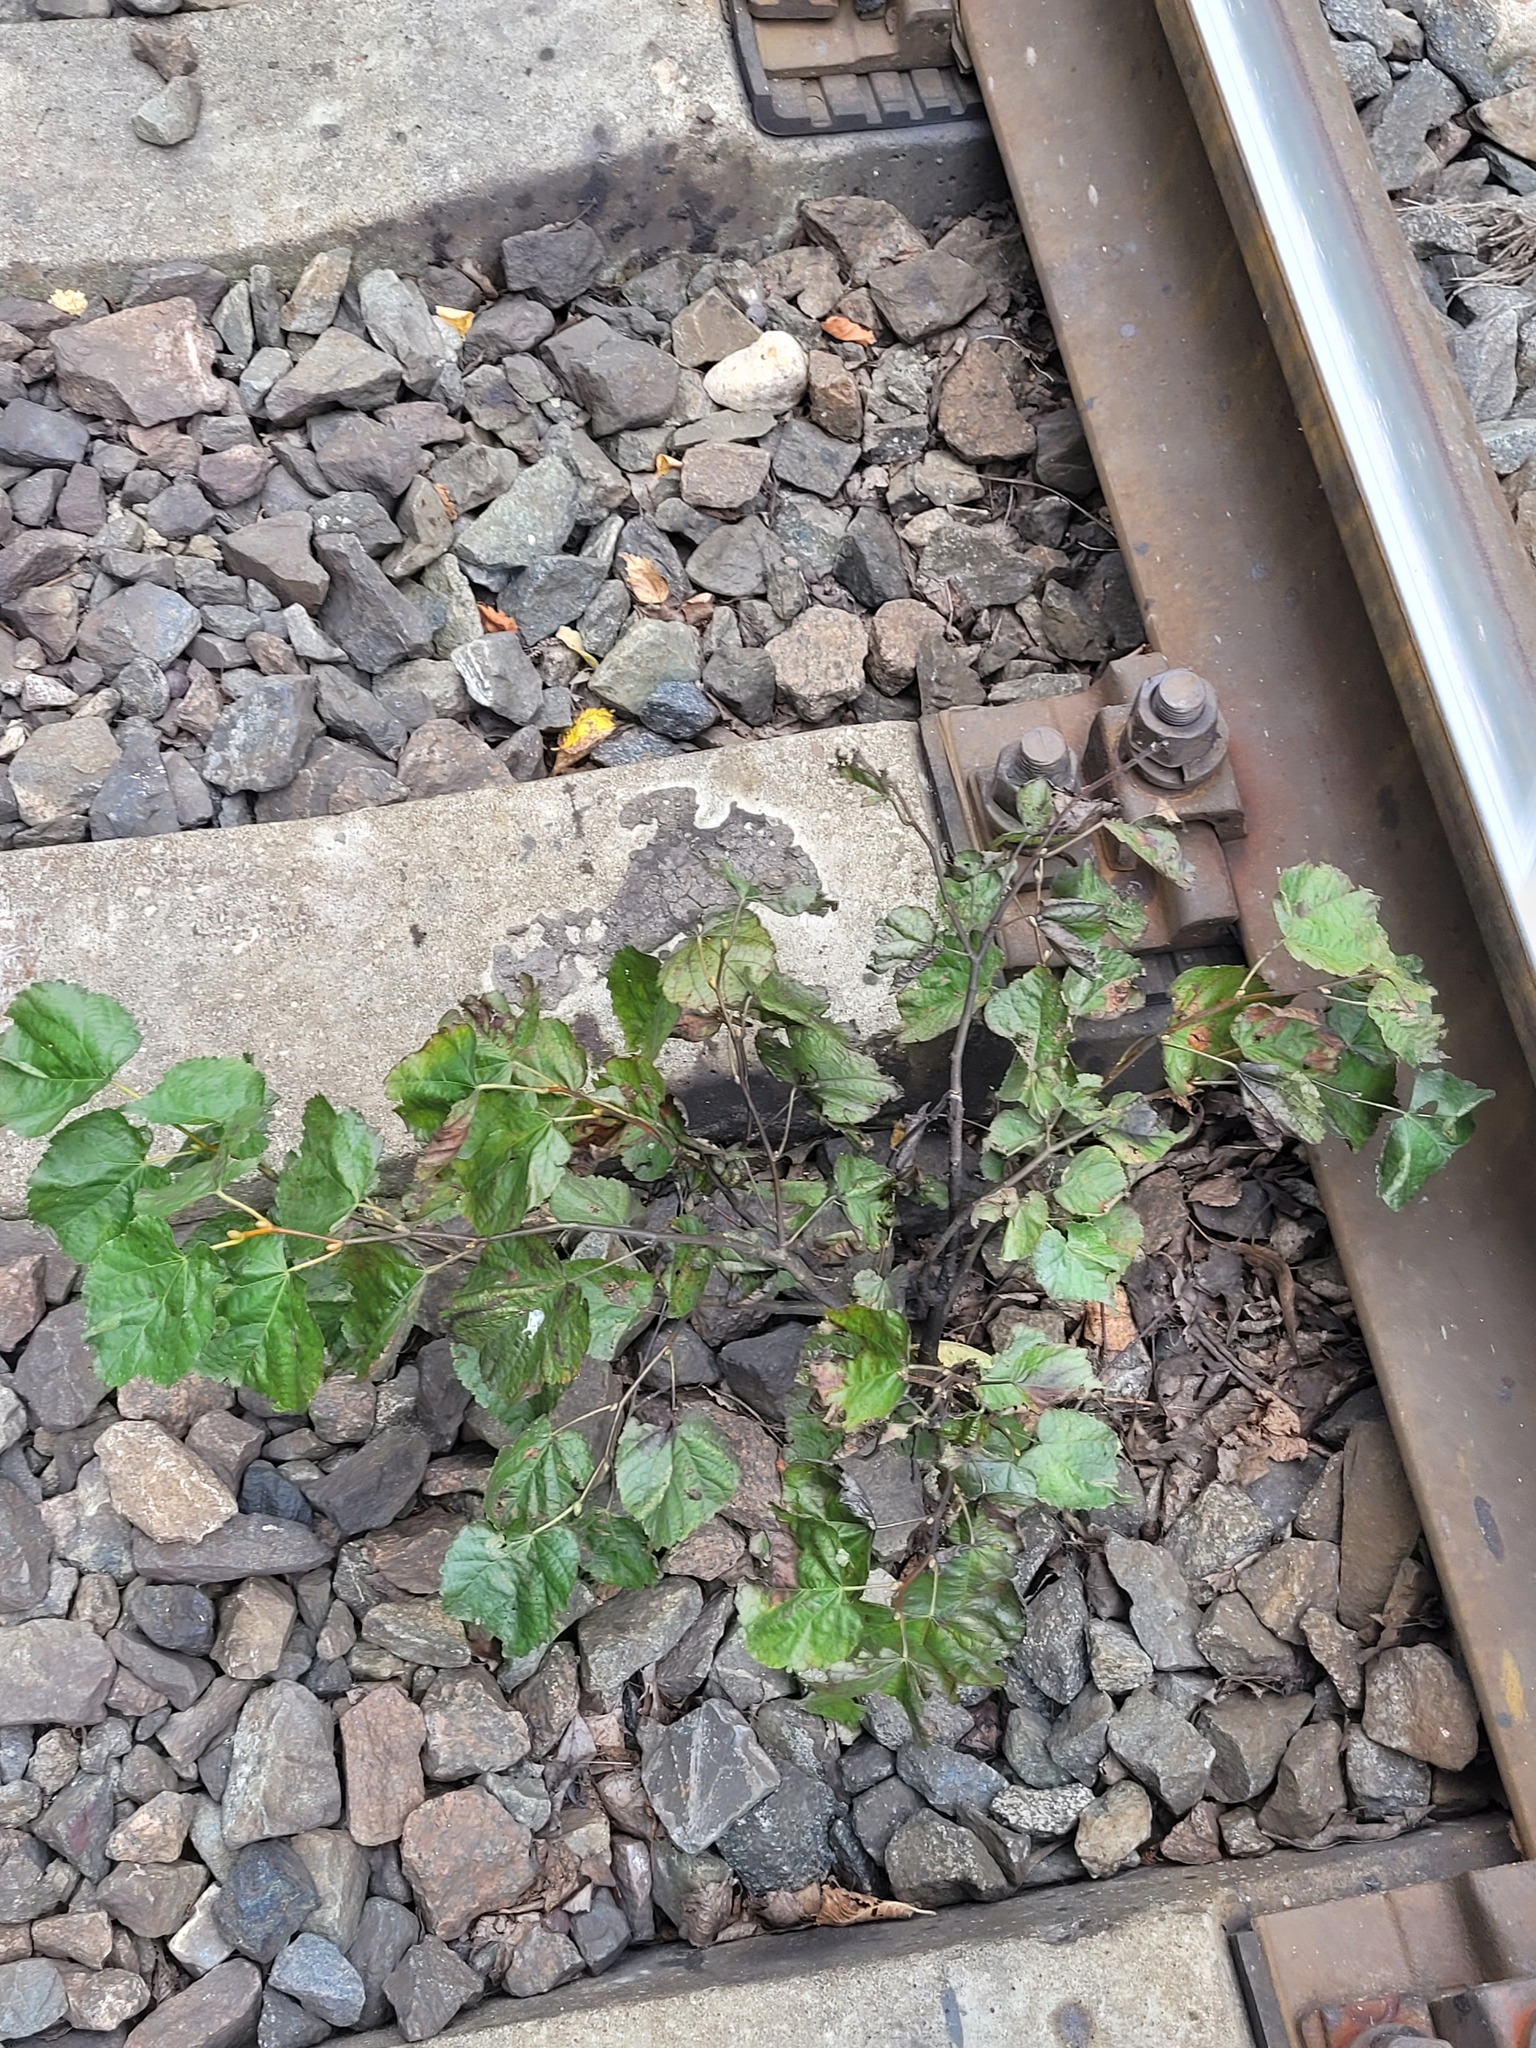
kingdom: Plantae
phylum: Tracheophyta
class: Magnoliopsida
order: Malvales
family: Malvaceae
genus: Tilia
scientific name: Tilia cordata
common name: Small-leaved lime
